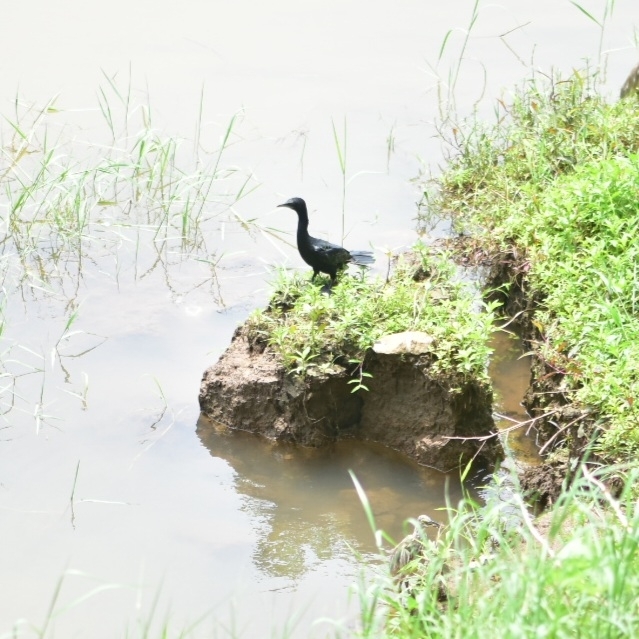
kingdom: Animalia
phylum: Chordata
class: Aves
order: Suliformes
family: Phalacrocoracidae
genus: Microcarbo
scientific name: Microcarbo niger
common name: Little cormorant
